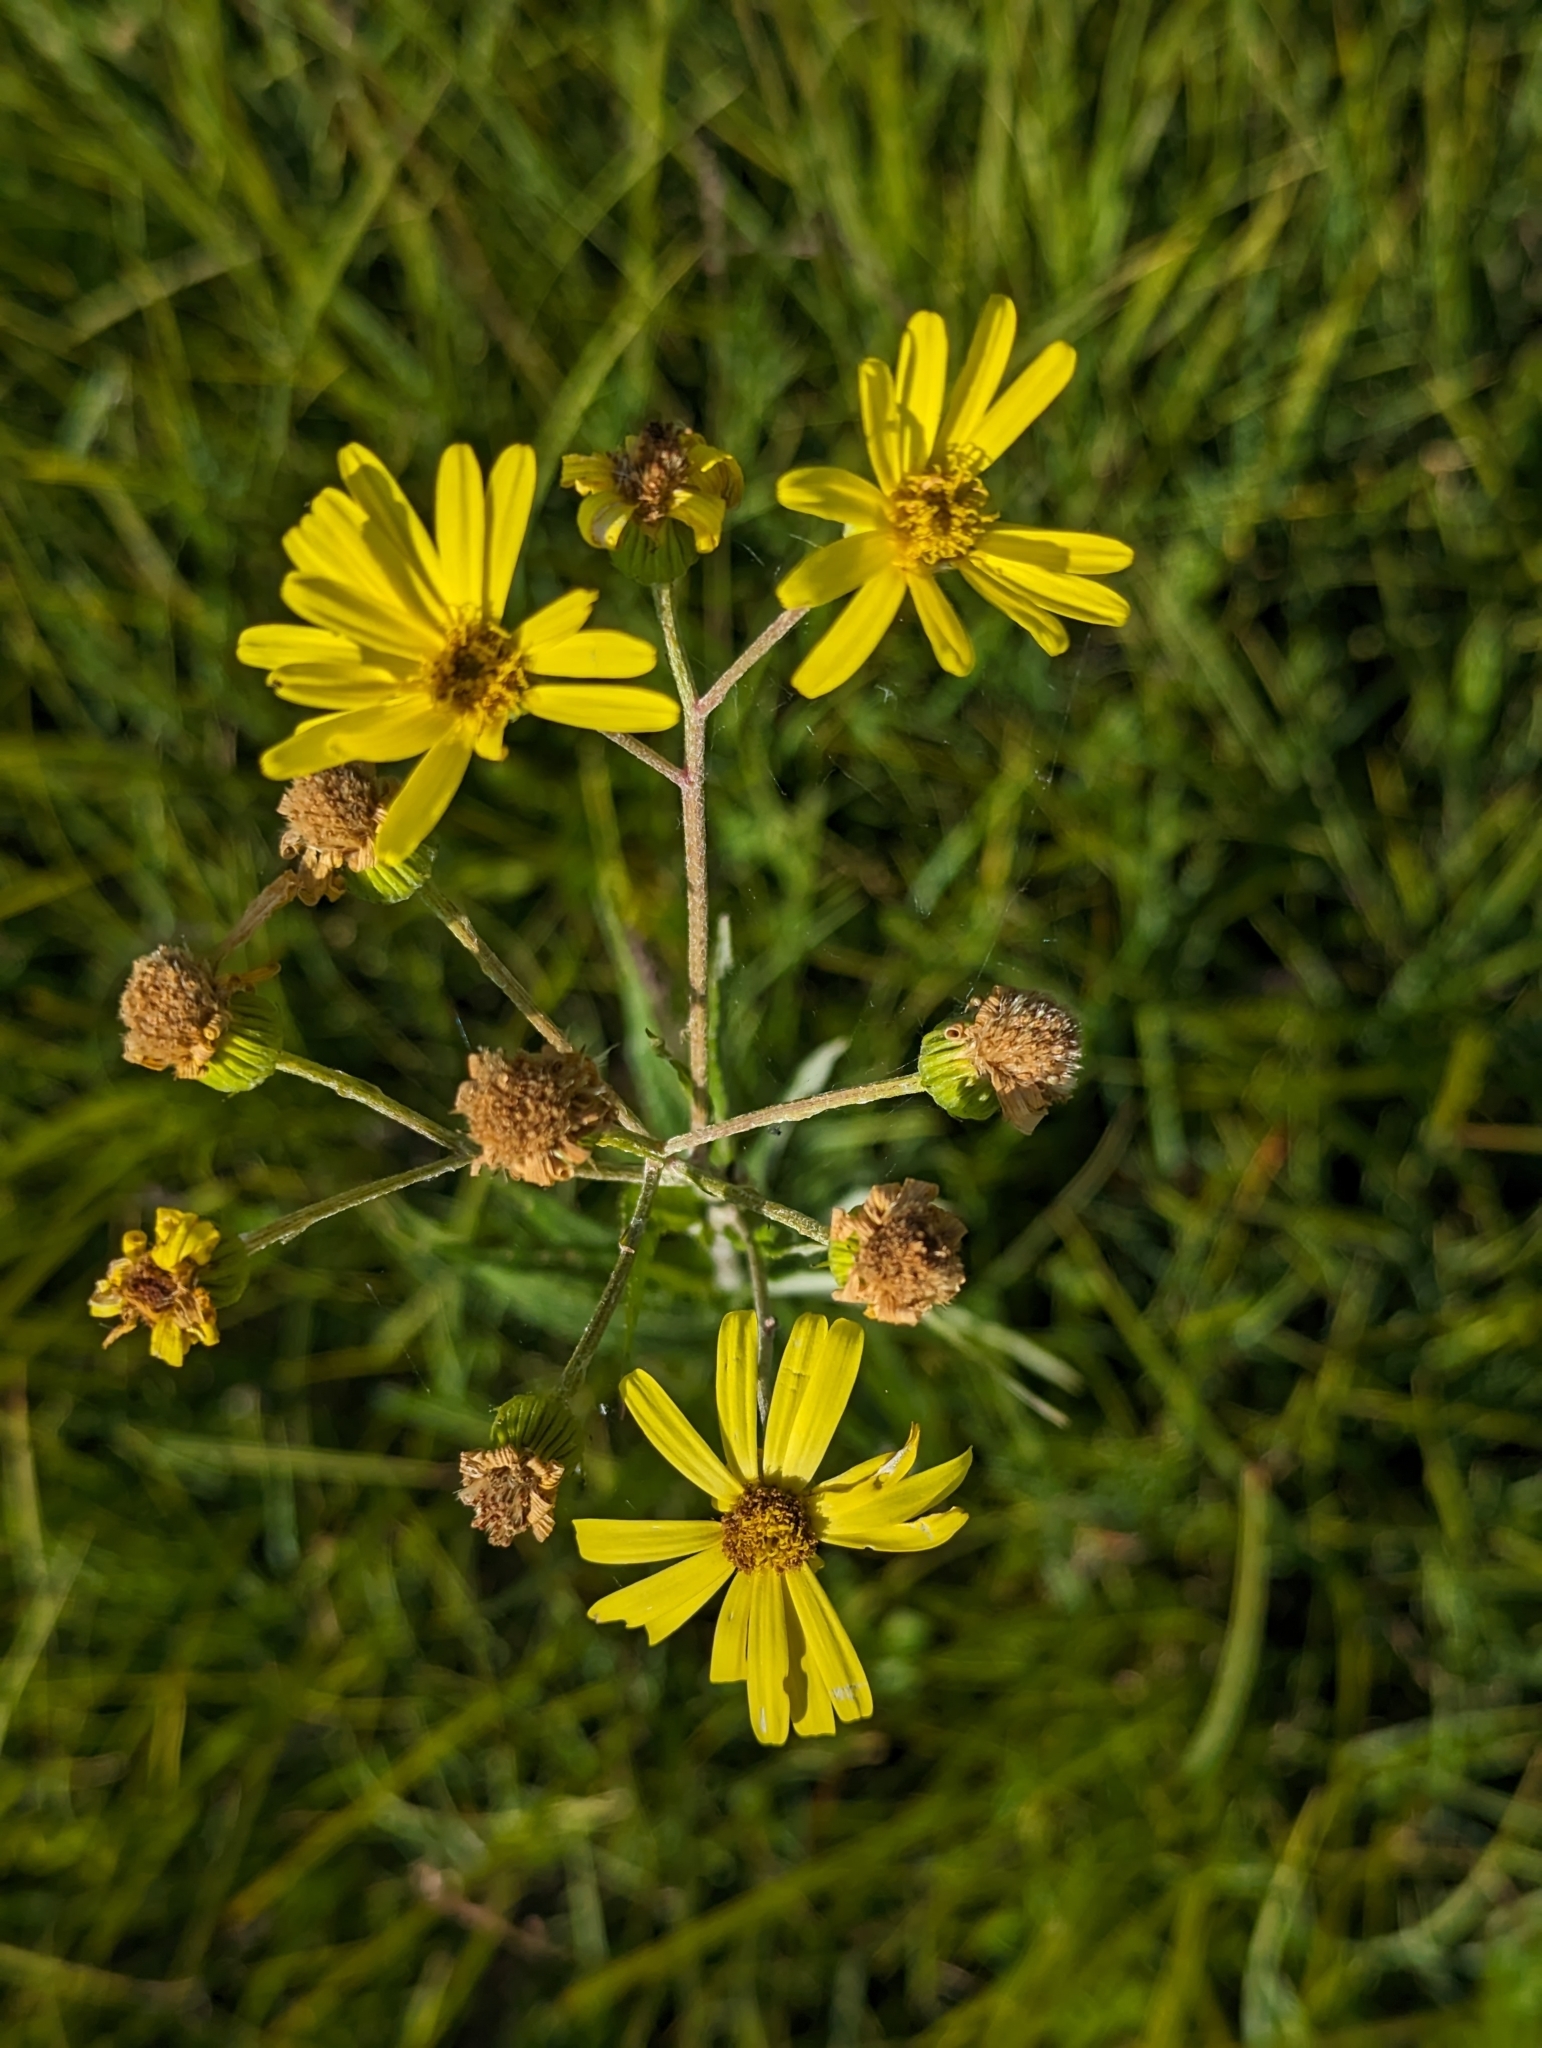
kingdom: Plantae
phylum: Tracheophyta
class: Magnoliopsida
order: Asterales
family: Asteraceae
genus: Jacobaea
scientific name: Jacobaea paludosa
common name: Fen ragwort
